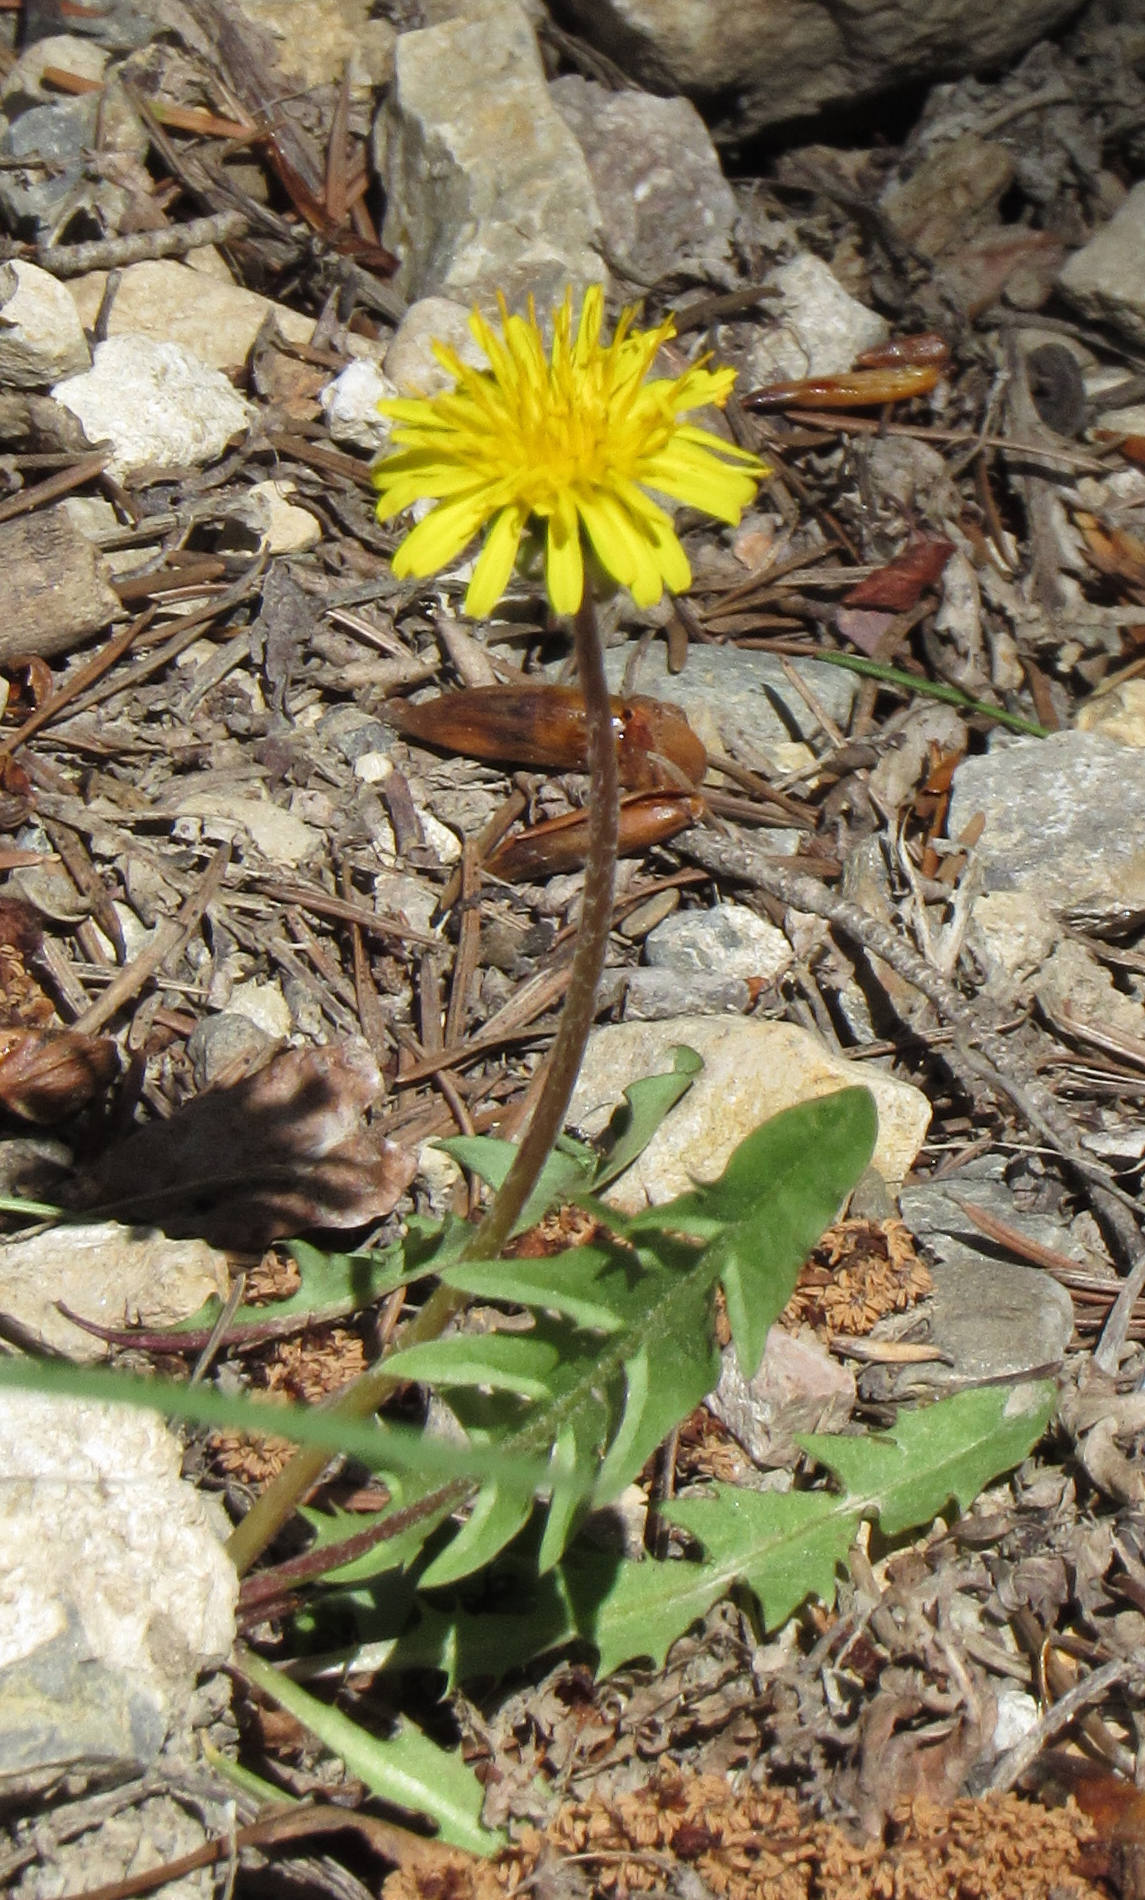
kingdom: Plantae
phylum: Tracheophyta
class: Magnoliopsida
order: Asterales
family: Asteraceae
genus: Taraxacum
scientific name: Taraxacum officinale
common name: Common dandelion
